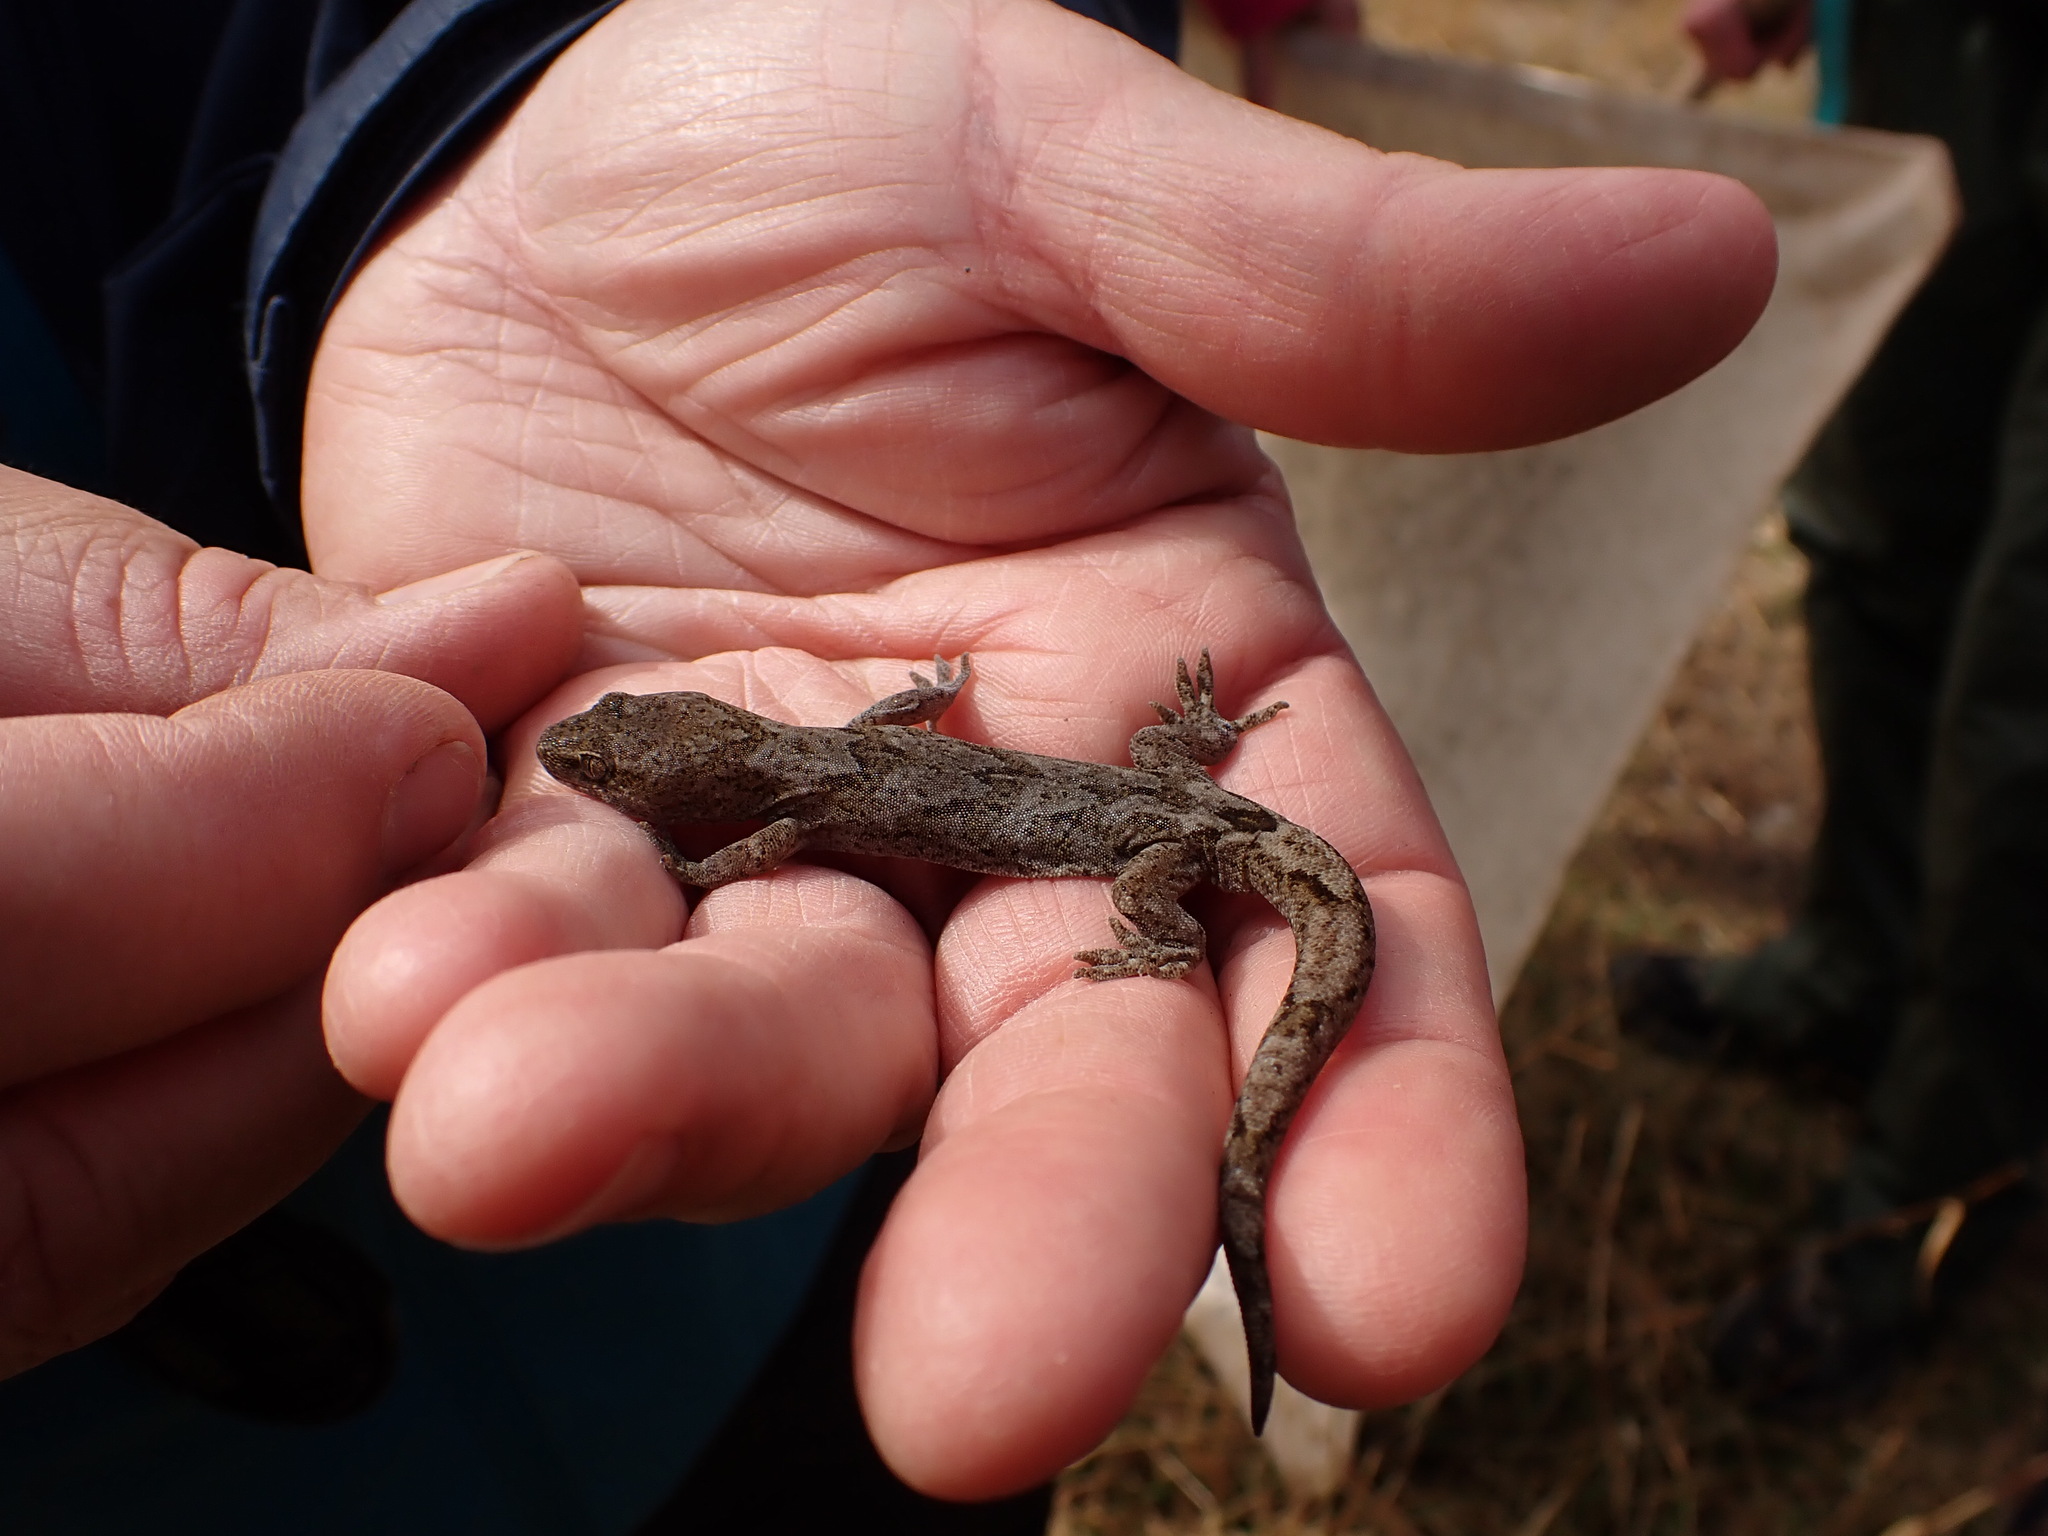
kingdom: Animalia
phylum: Chordata
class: Squamata
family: Diplodactylidae
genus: Woodworthia
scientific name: Woodworthia
